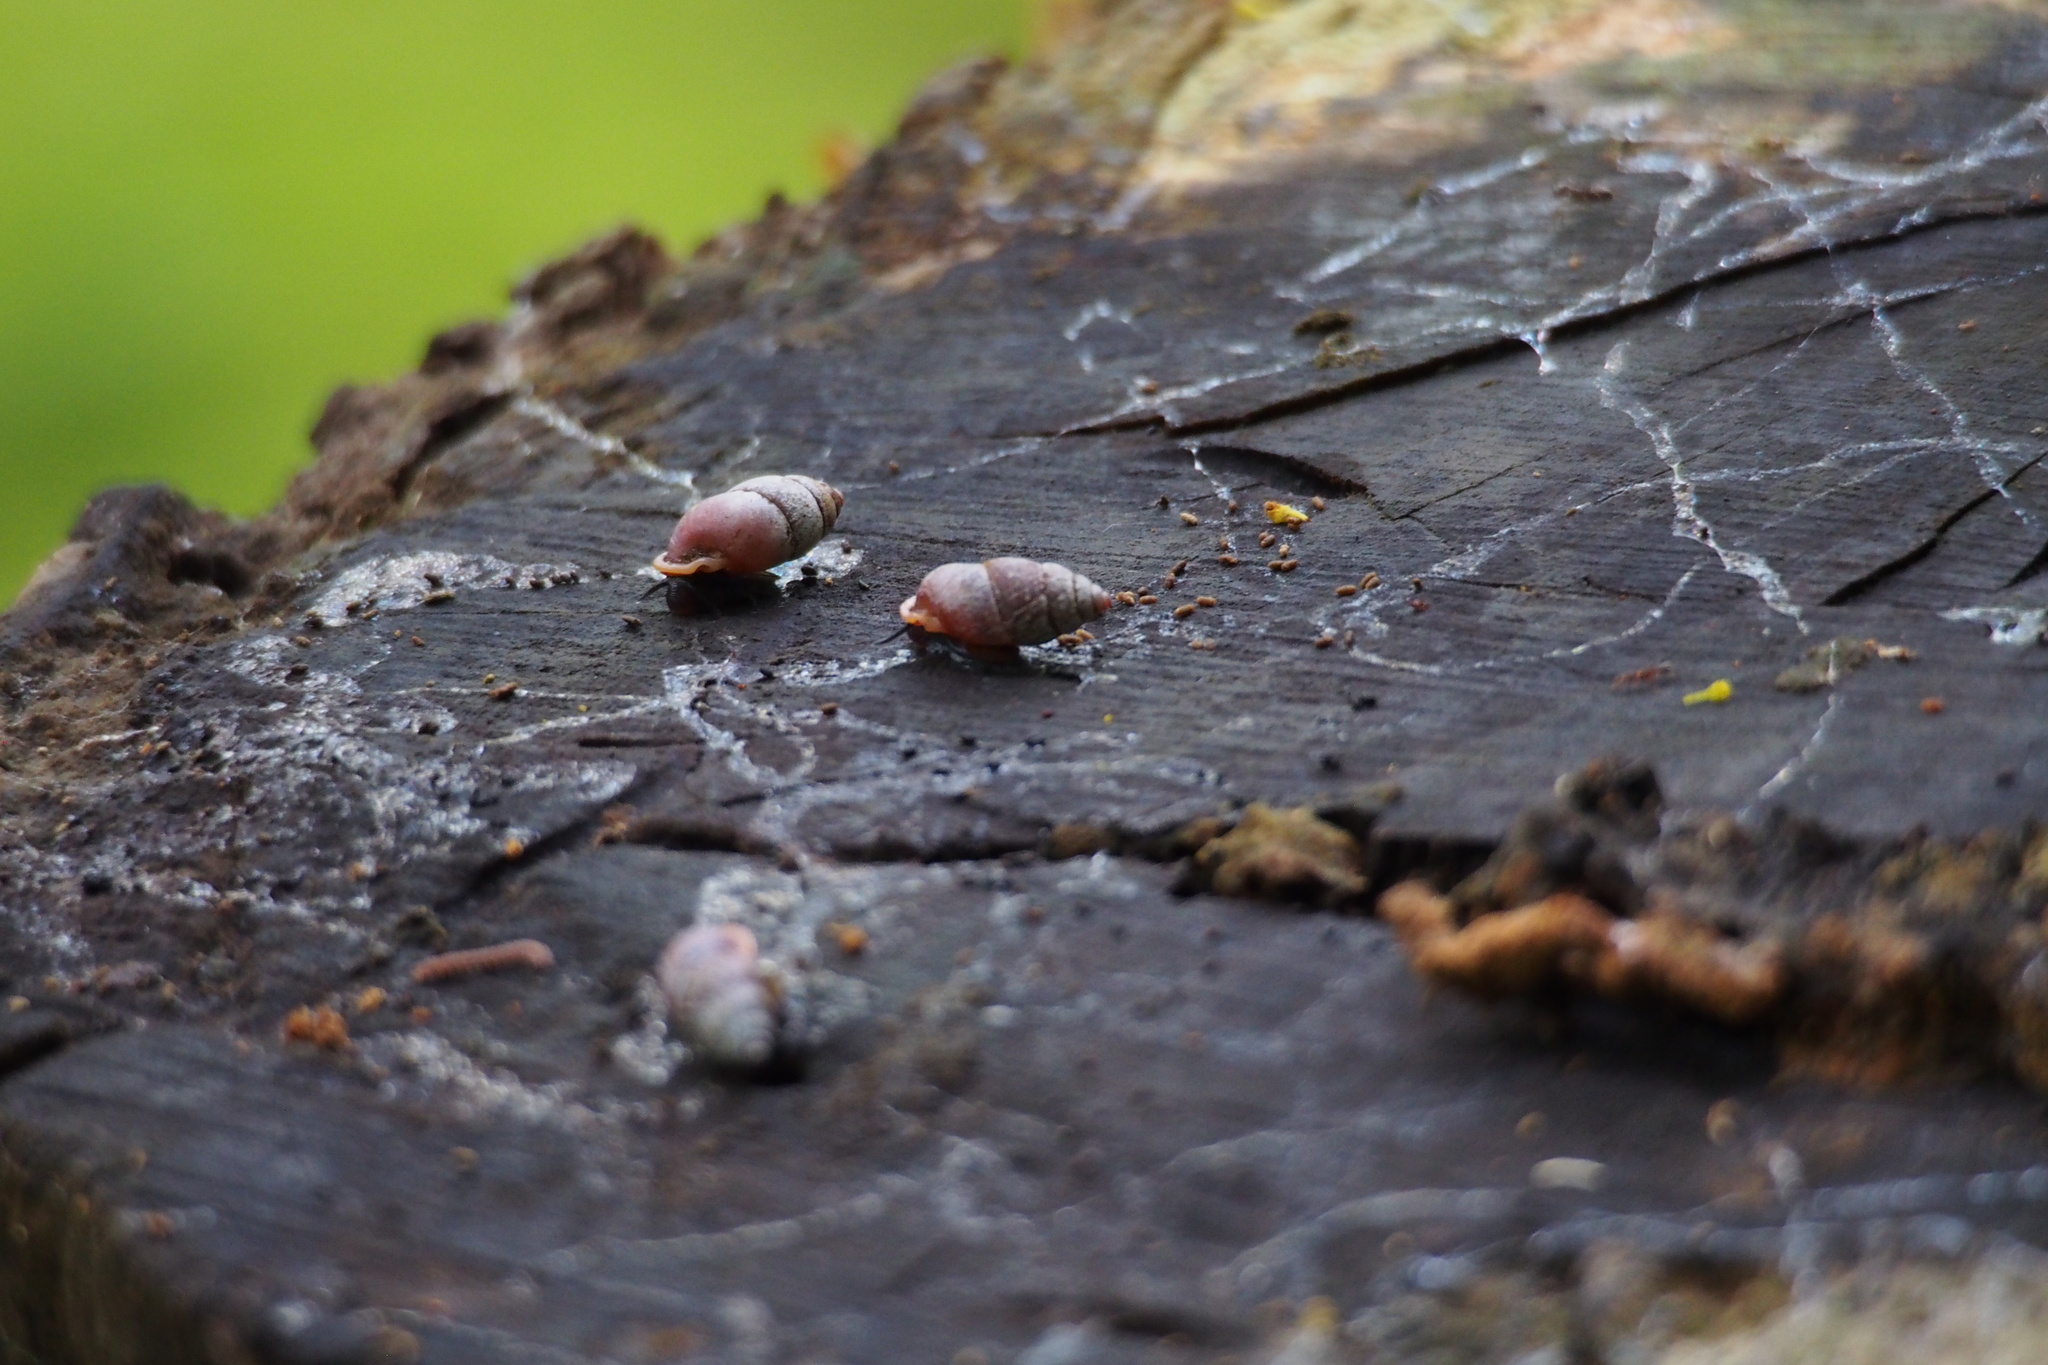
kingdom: Animalia
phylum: Mollusca
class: Gastropoda
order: Architaenioglossa
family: Pupinidae
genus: Pupinella
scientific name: Pupinella rufa
